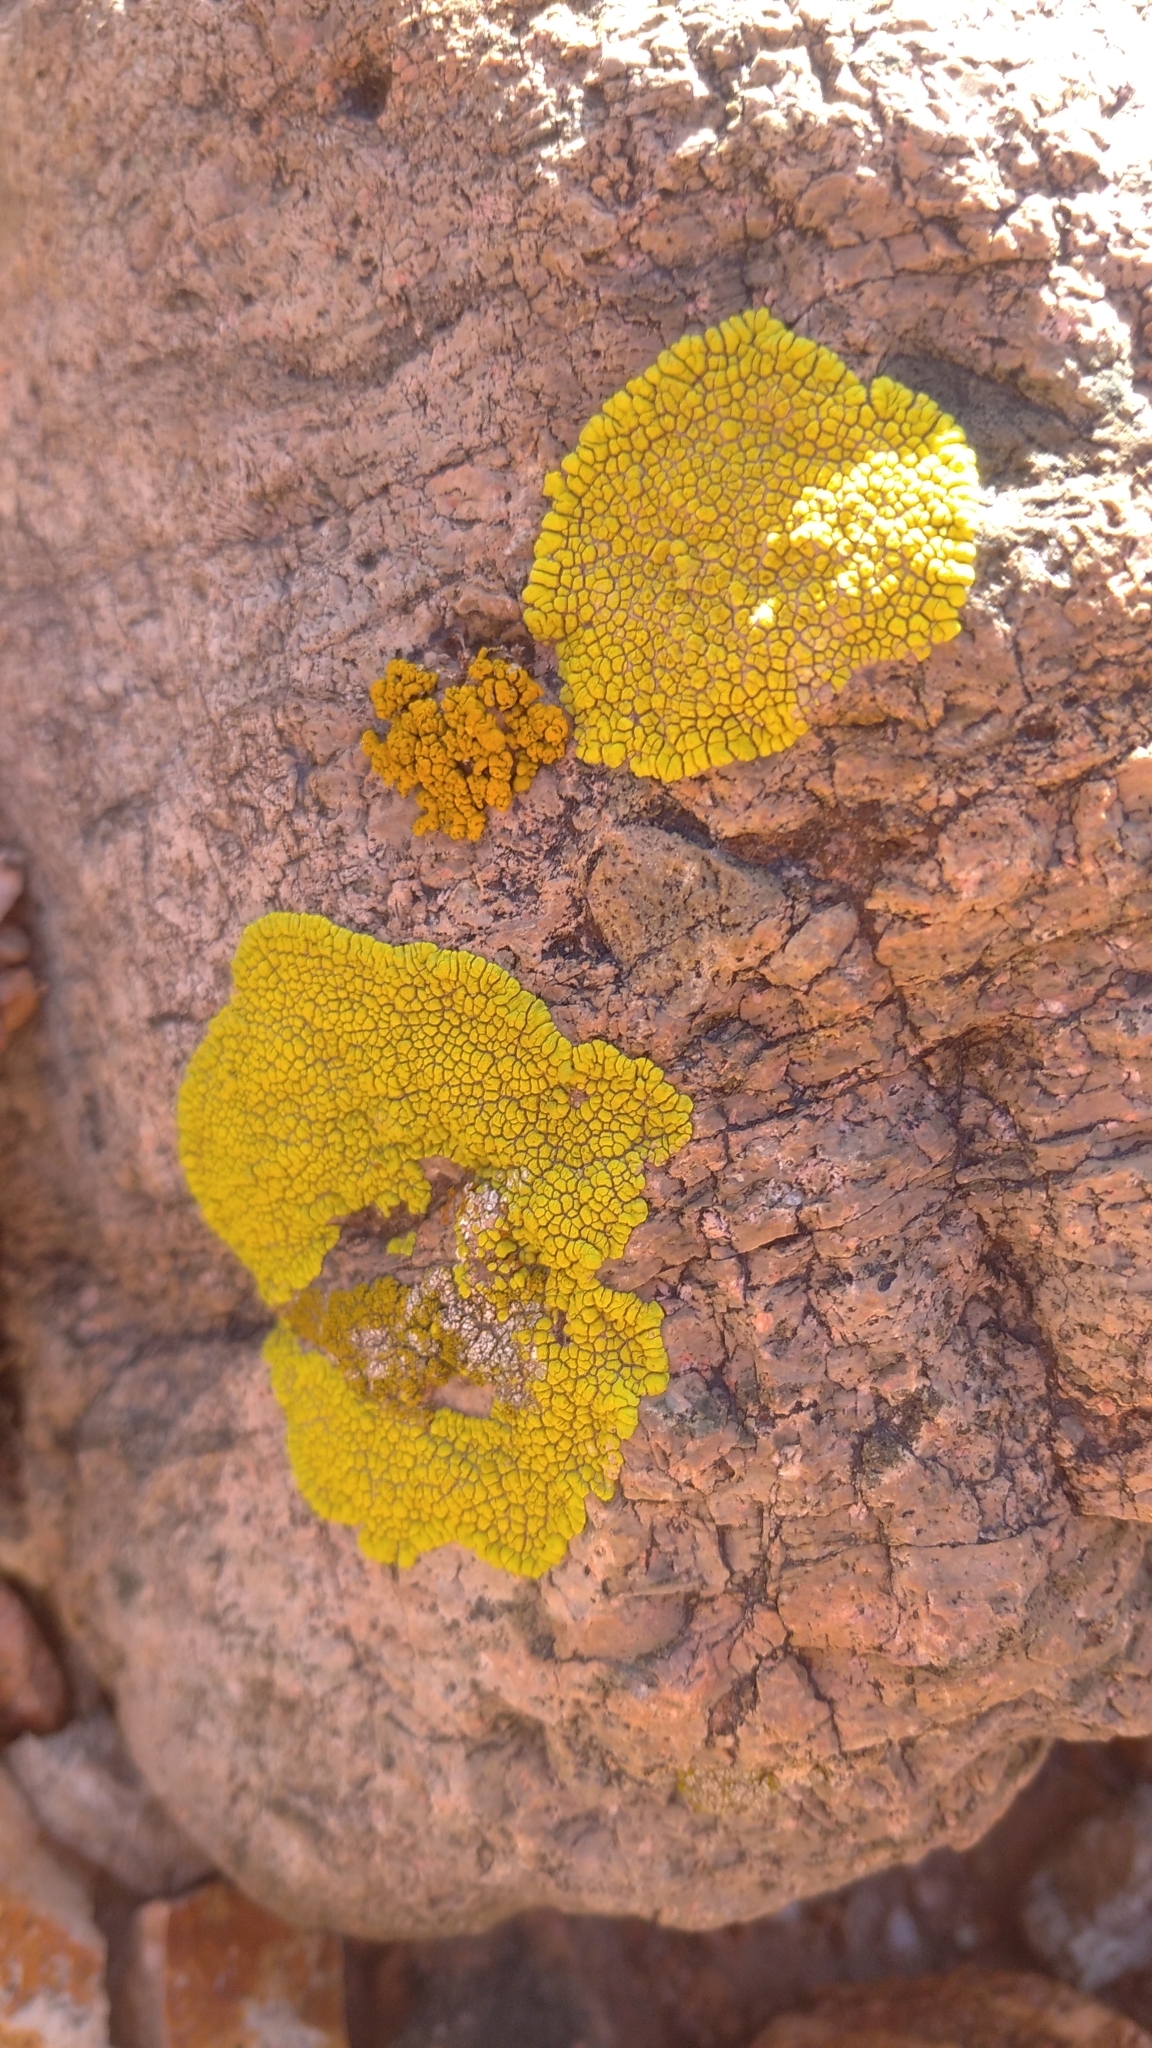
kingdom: Fungi
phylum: Ascomycota
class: Lecanoromycetes
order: Acarosporales
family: Acarosporaceae
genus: Pleopsidium
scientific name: Pleopsidium oxytonum
